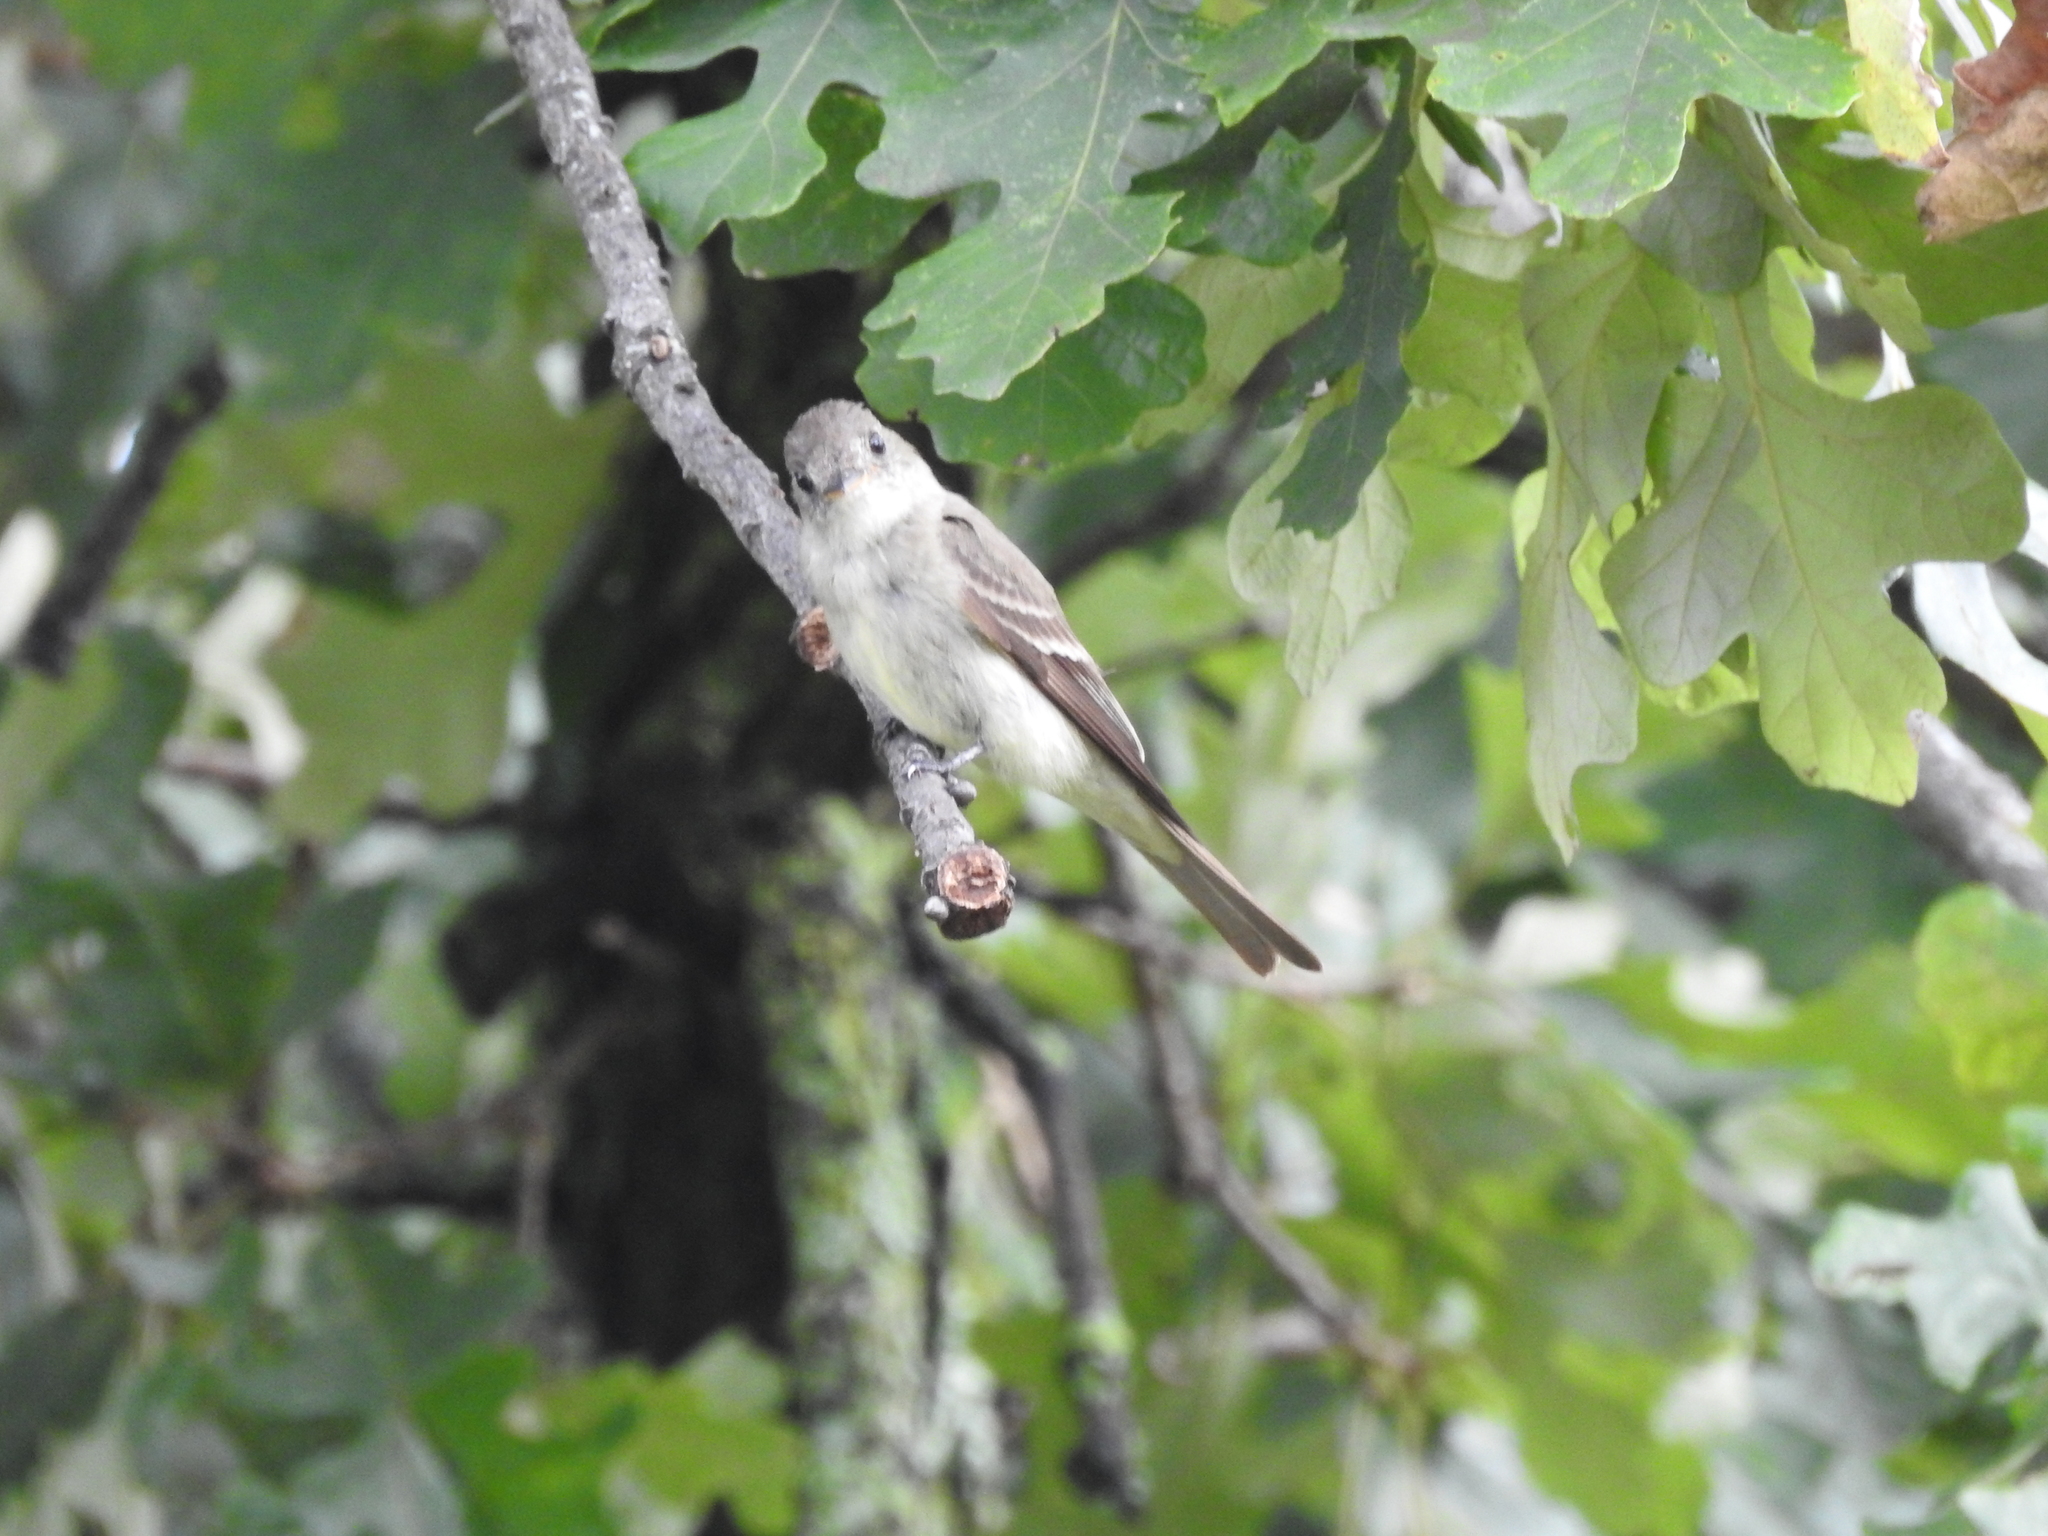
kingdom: Animalia
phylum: Chordata
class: Aves
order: Passeriformes
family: Tyrannidae
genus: Contopus
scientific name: Contopus virens
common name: Eastern wood-pewee
